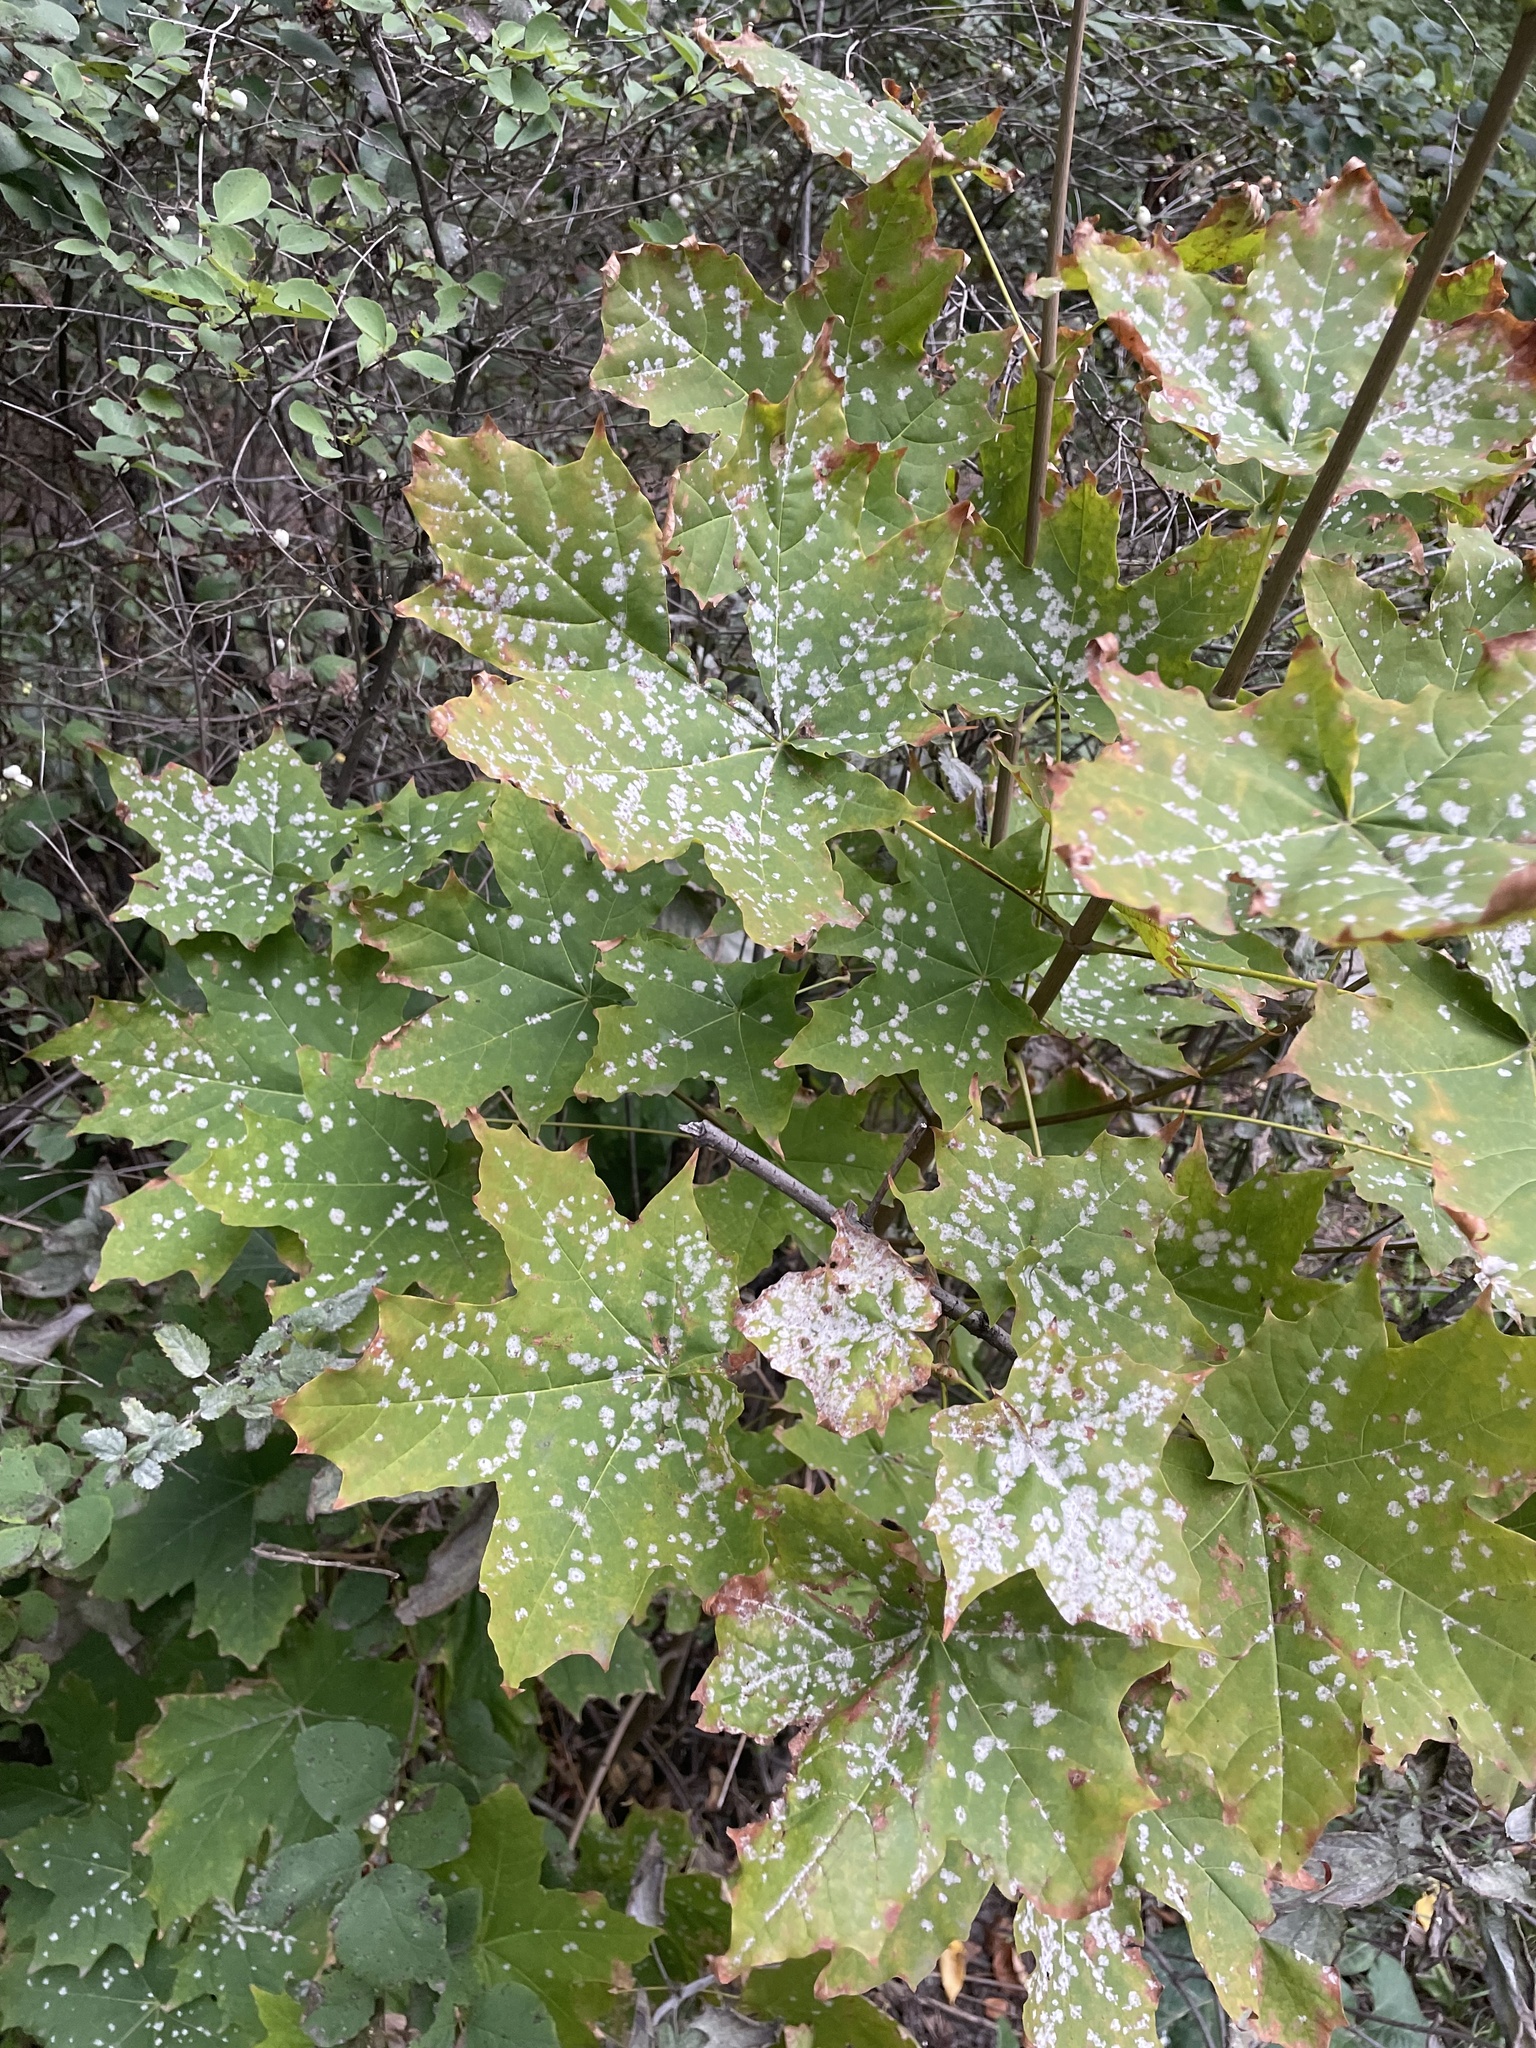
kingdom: Fungi
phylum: Ascomycota
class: Leotiomycetes
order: Helotiales
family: Erysiphaceae
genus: Sawadaea
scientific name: Sawadaea tulasnei
